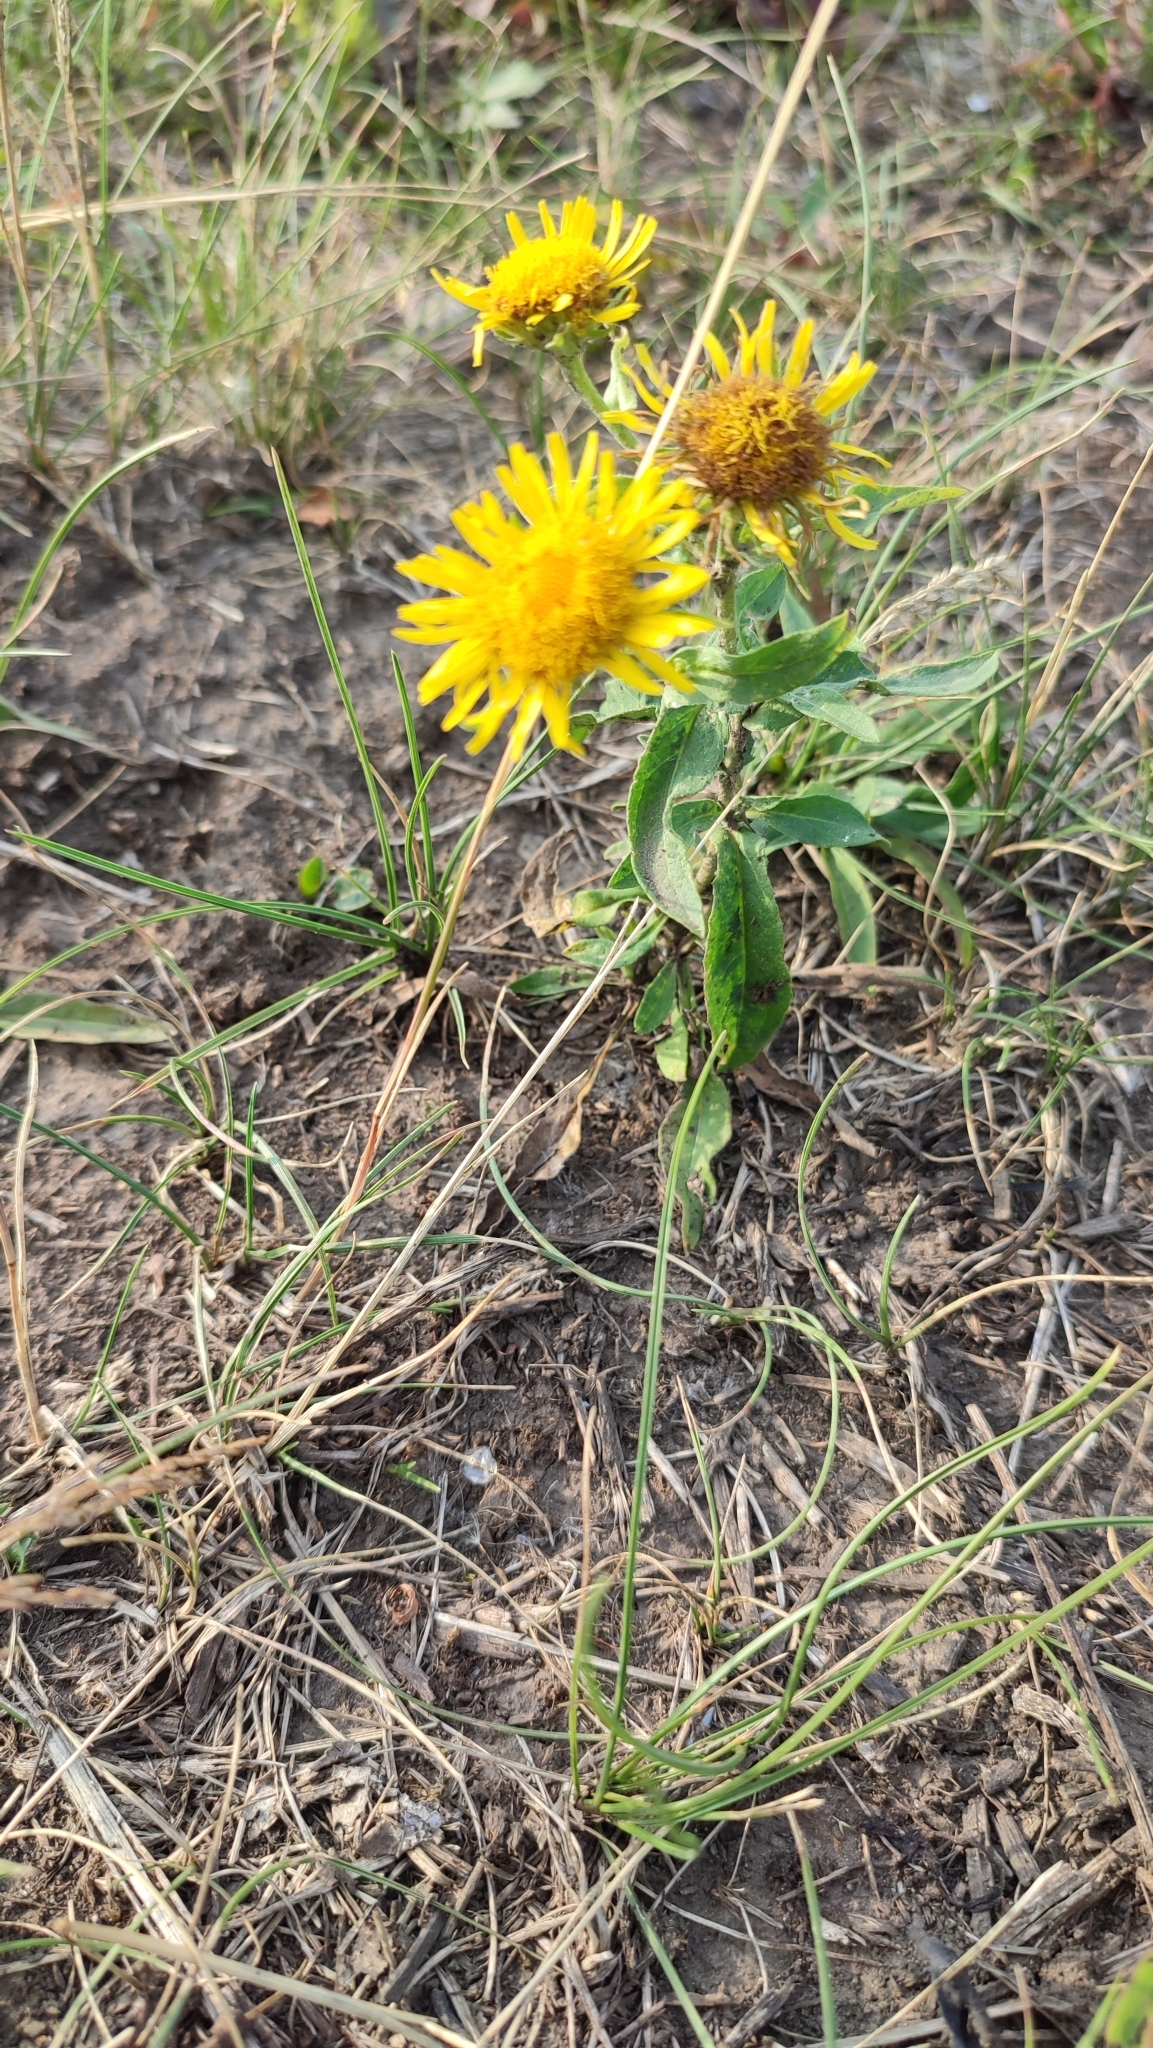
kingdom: Plantae
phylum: Tracheophyta
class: Magnoliopsida
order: Asterales
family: Asteraceae
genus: Pentanema
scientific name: Pentanema britannicum
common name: British elecampane
